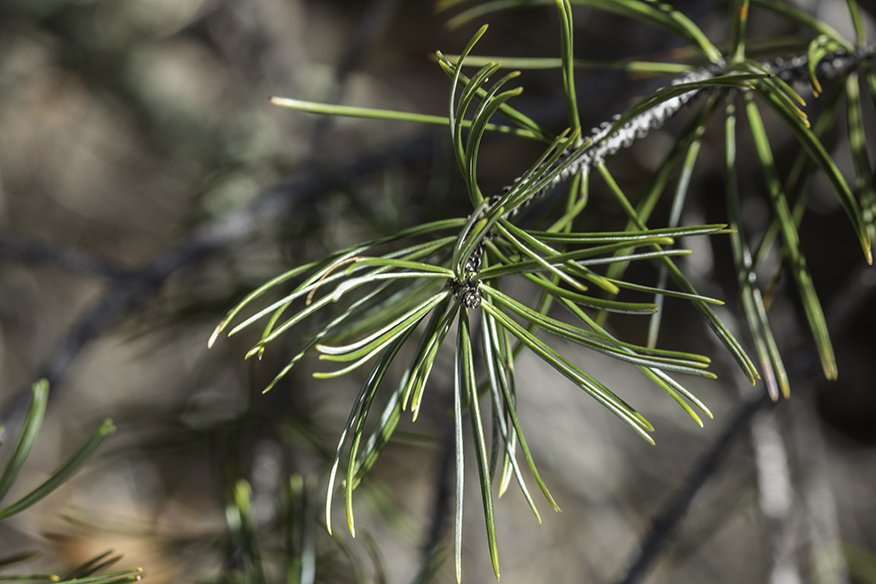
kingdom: Plantae
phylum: Tracheophyta
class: Pinopsida
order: Pinales
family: Pinaceae
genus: Pinus
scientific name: Pinus cembroides
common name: Mexican nut pine
